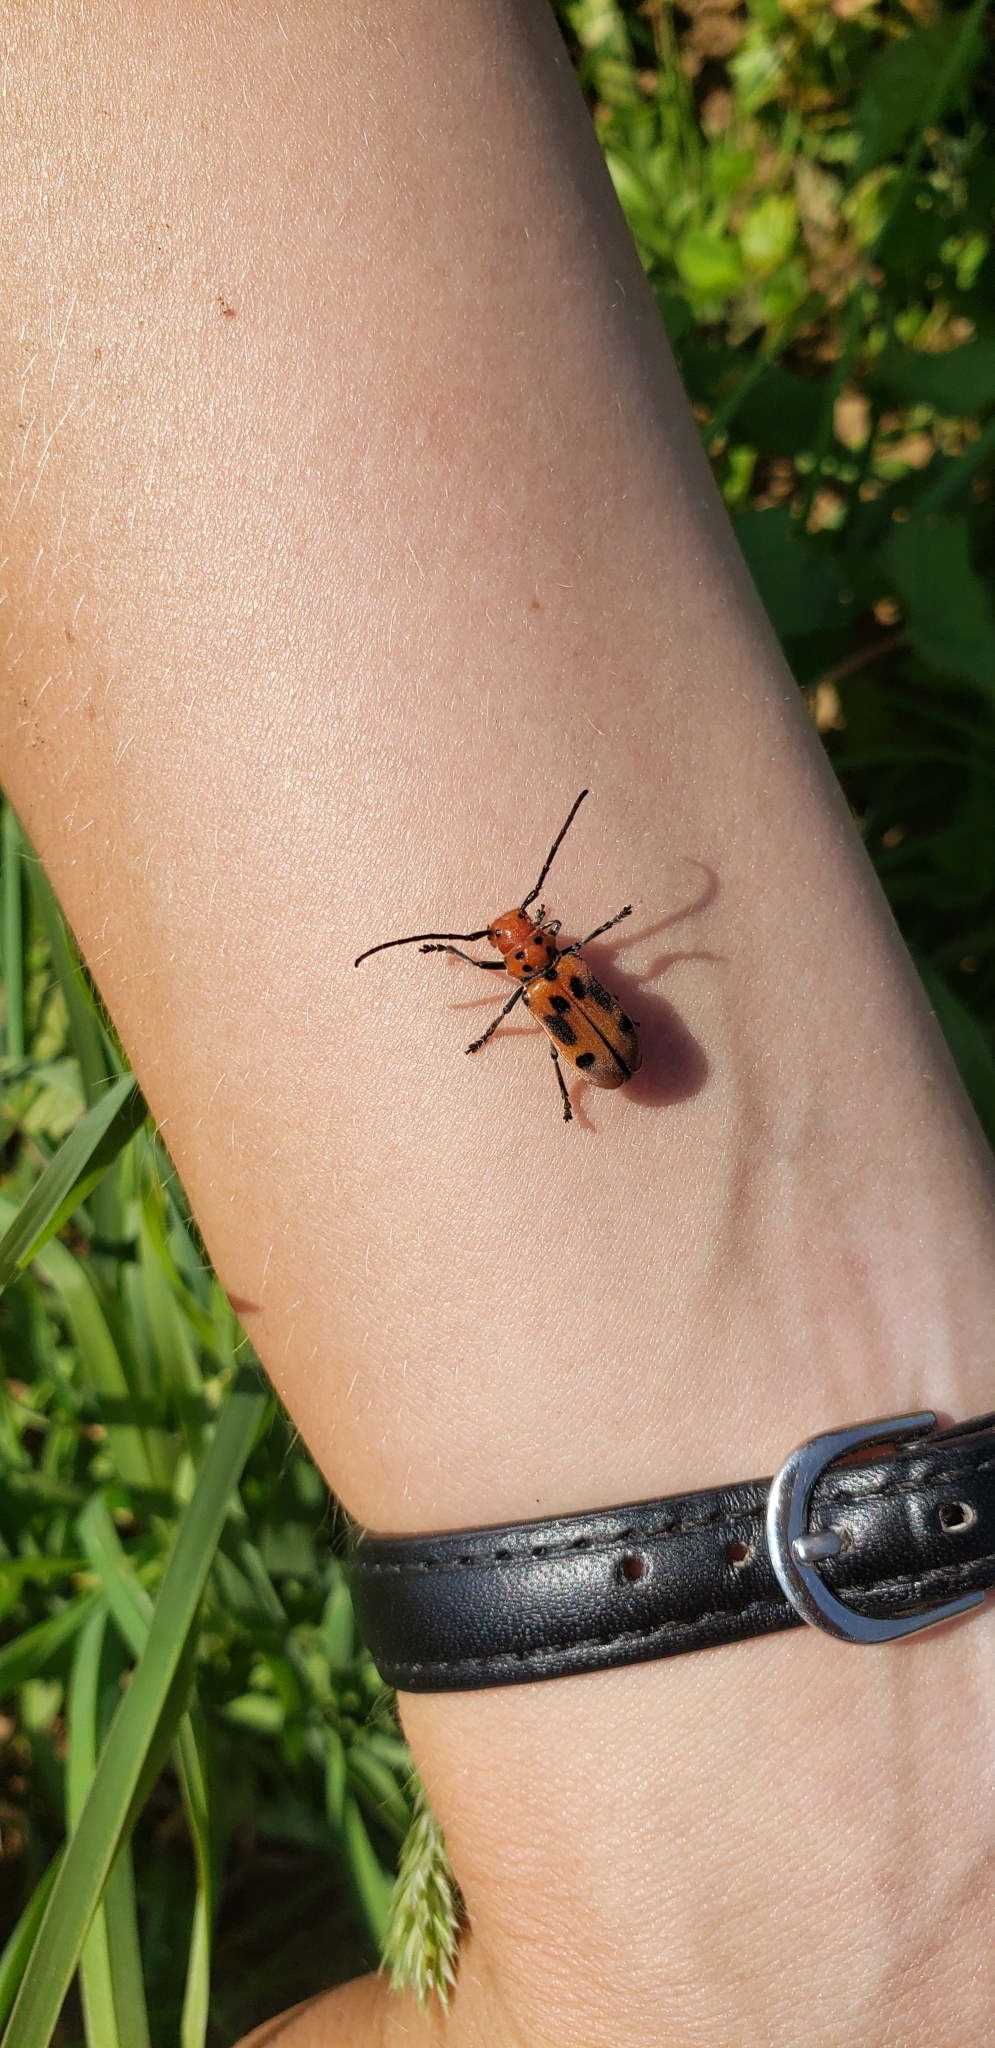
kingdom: Animalia
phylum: Arthropoda
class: Insecta
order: Coleoptera
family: Cerambycidae
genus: Tetraopes
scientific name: Tetraopes tetrophthalmus
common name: Red milkweed beetle
